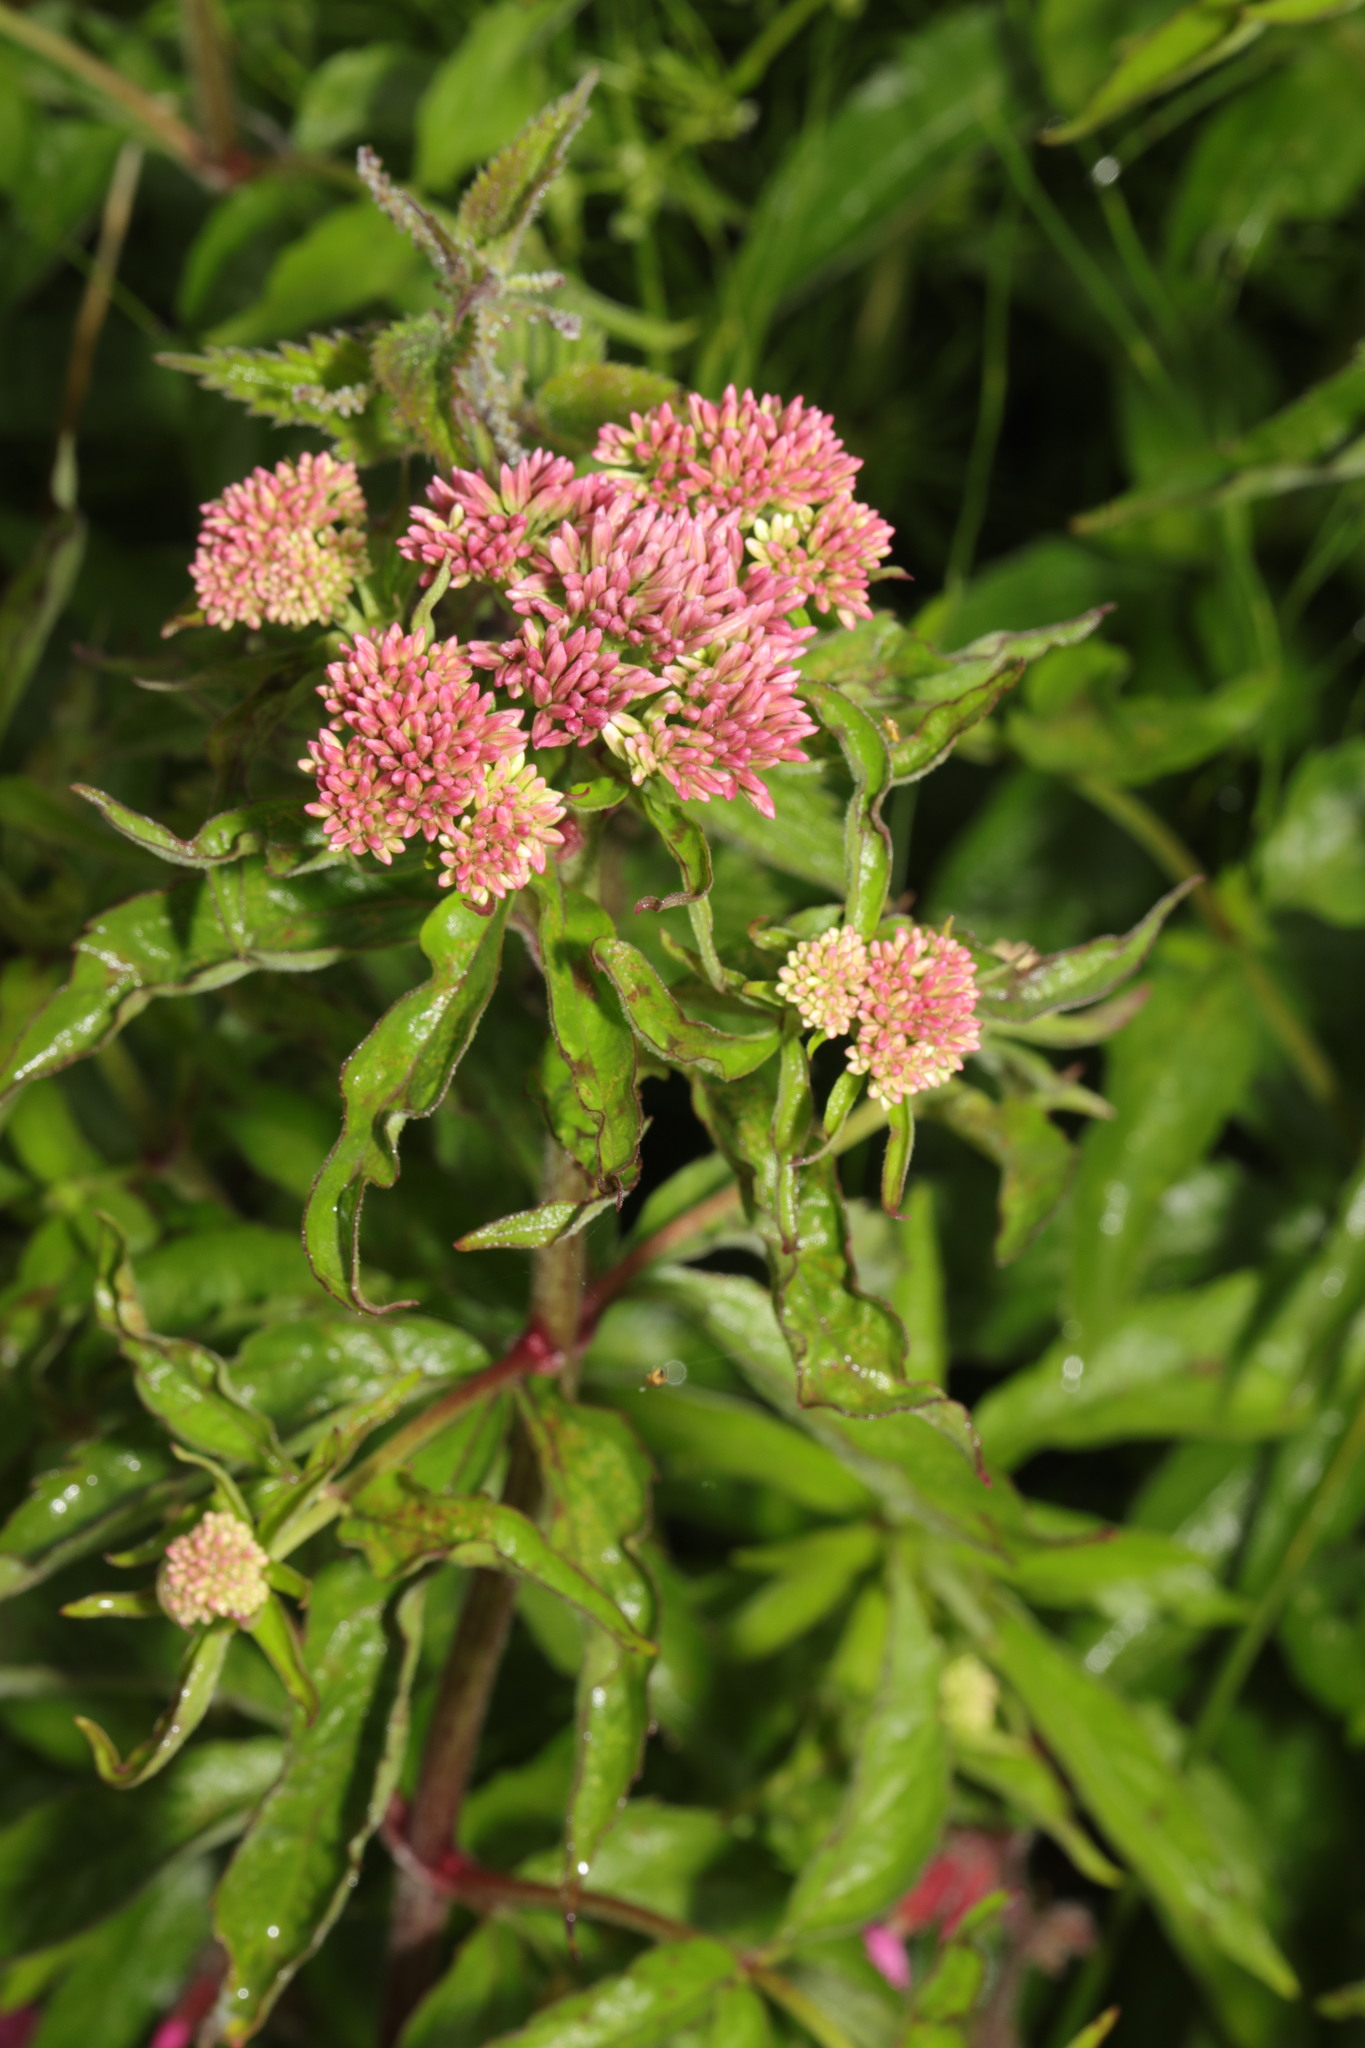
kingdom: Plantae
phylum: Tracheophyta
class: Magnoliopsida
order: Asterales
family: Asteraceae
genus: Eupatorium
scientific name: Eupatorium cannabinum
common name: Hemp-agrimony
